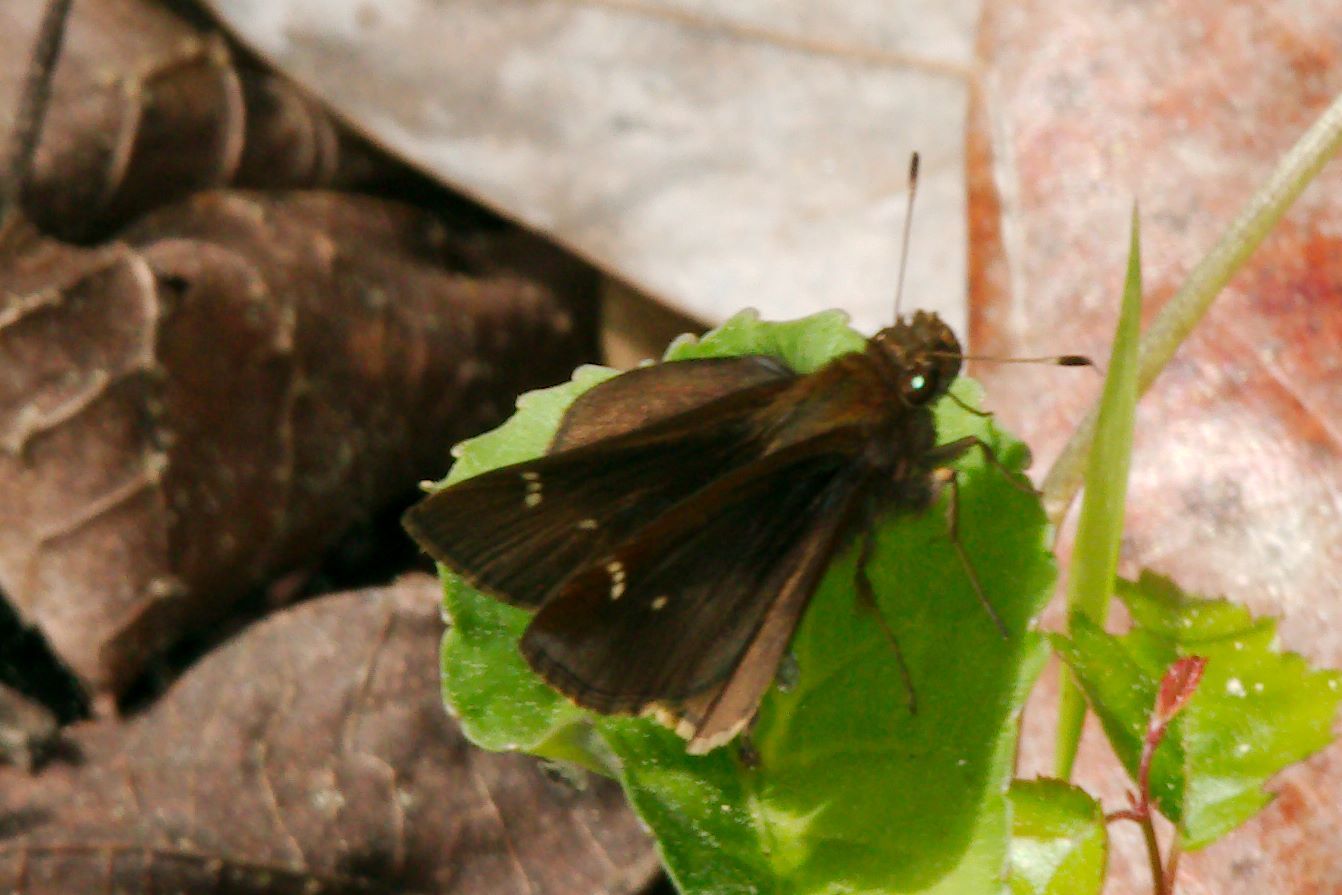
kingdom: Animalia
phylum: Arthropoda
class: Insecta
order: Lepidoptera
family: Hesperiidae
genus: Lerema
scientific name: Lerema accius
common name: Clouded skipper
